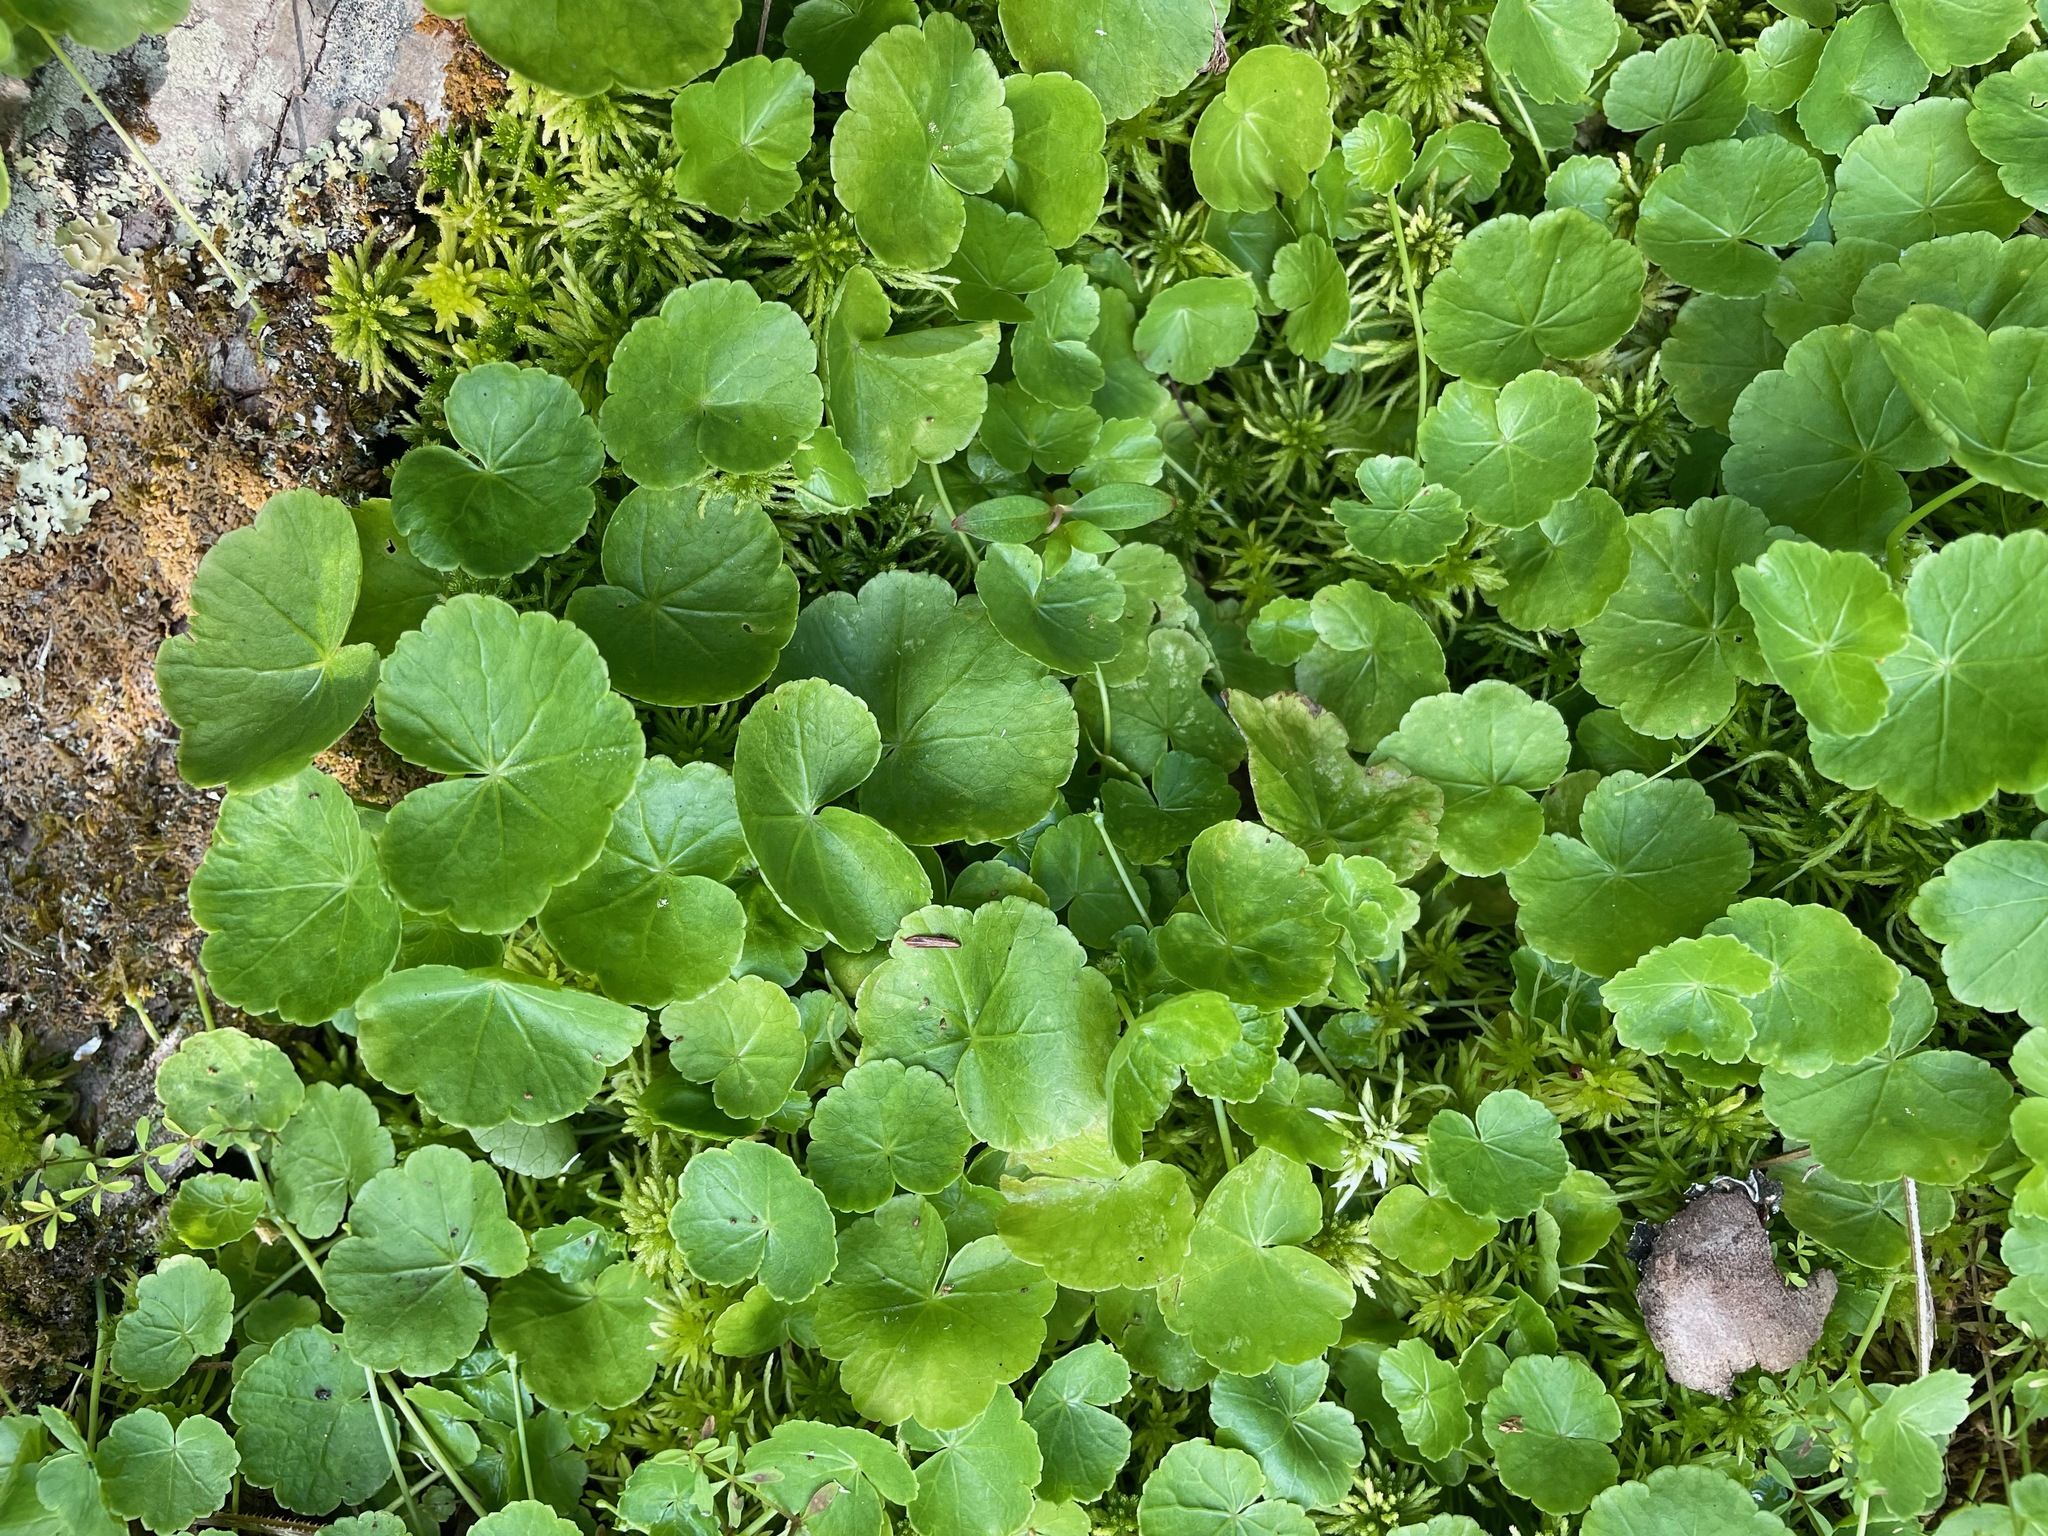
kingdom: Plantae
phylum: Tracheophyta
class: Magnoliopsida
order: Apiales
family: Araliaceae
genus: Hydrocotyle
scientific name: Hydrocotyle americana
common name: American water-pennywort
